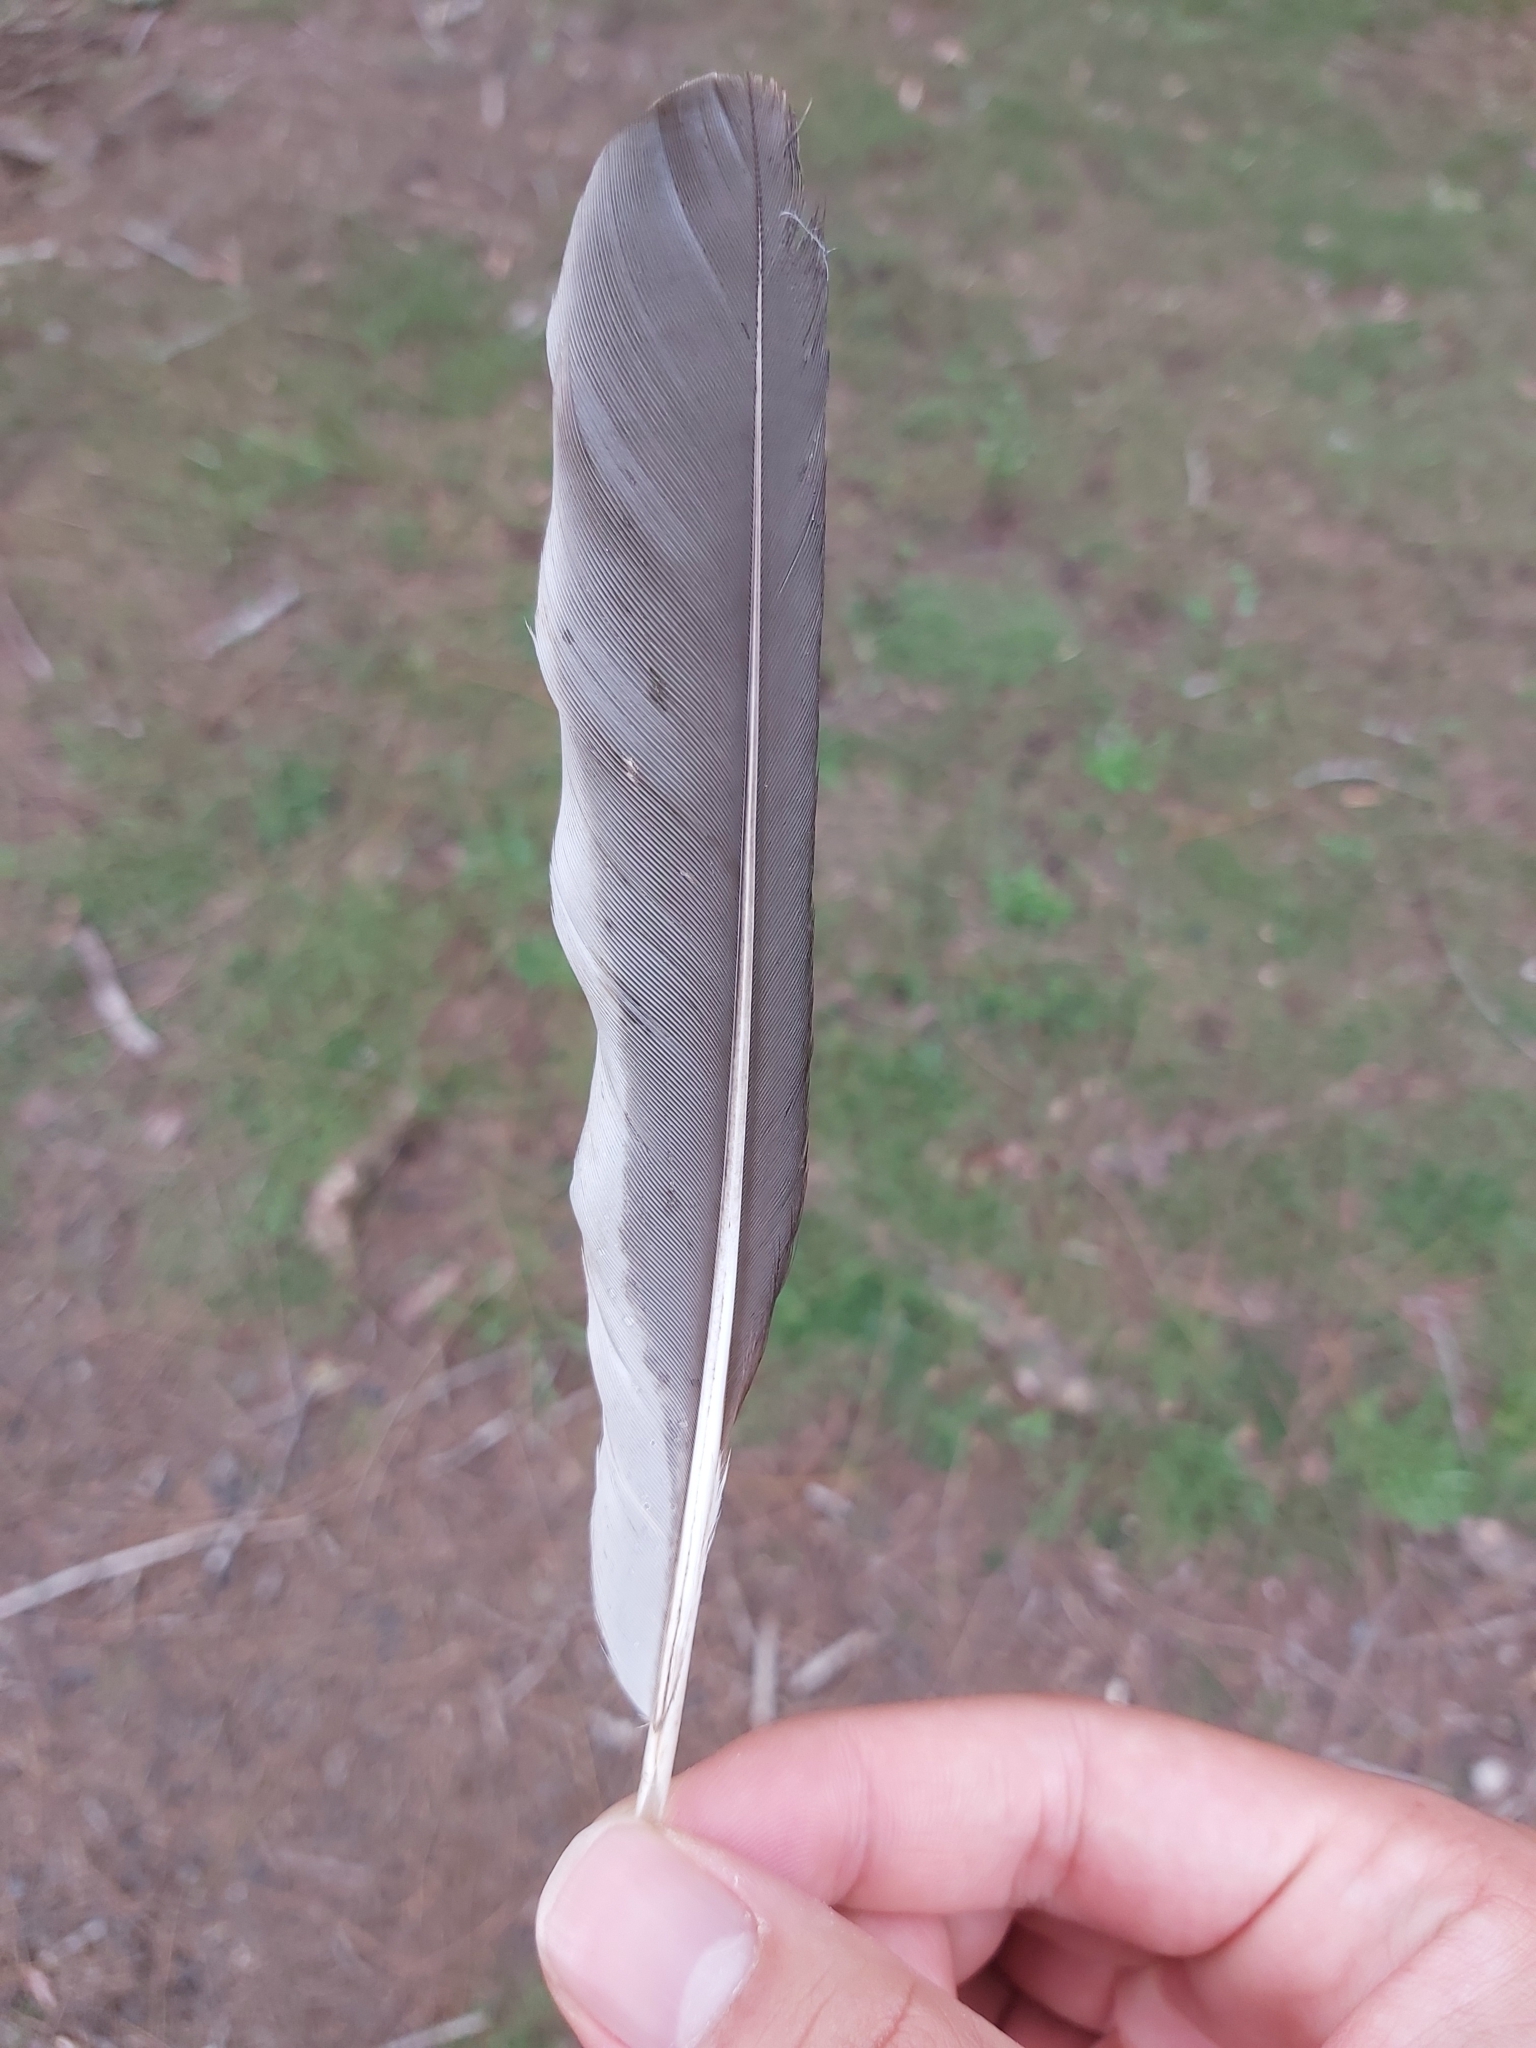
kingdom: Animalia
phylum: Chordata
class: Aves
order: Coraciiformes
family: Alcedinidae
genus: Dacelo
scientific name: Dacelo novaeguineae
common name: Laughing kookaburra
